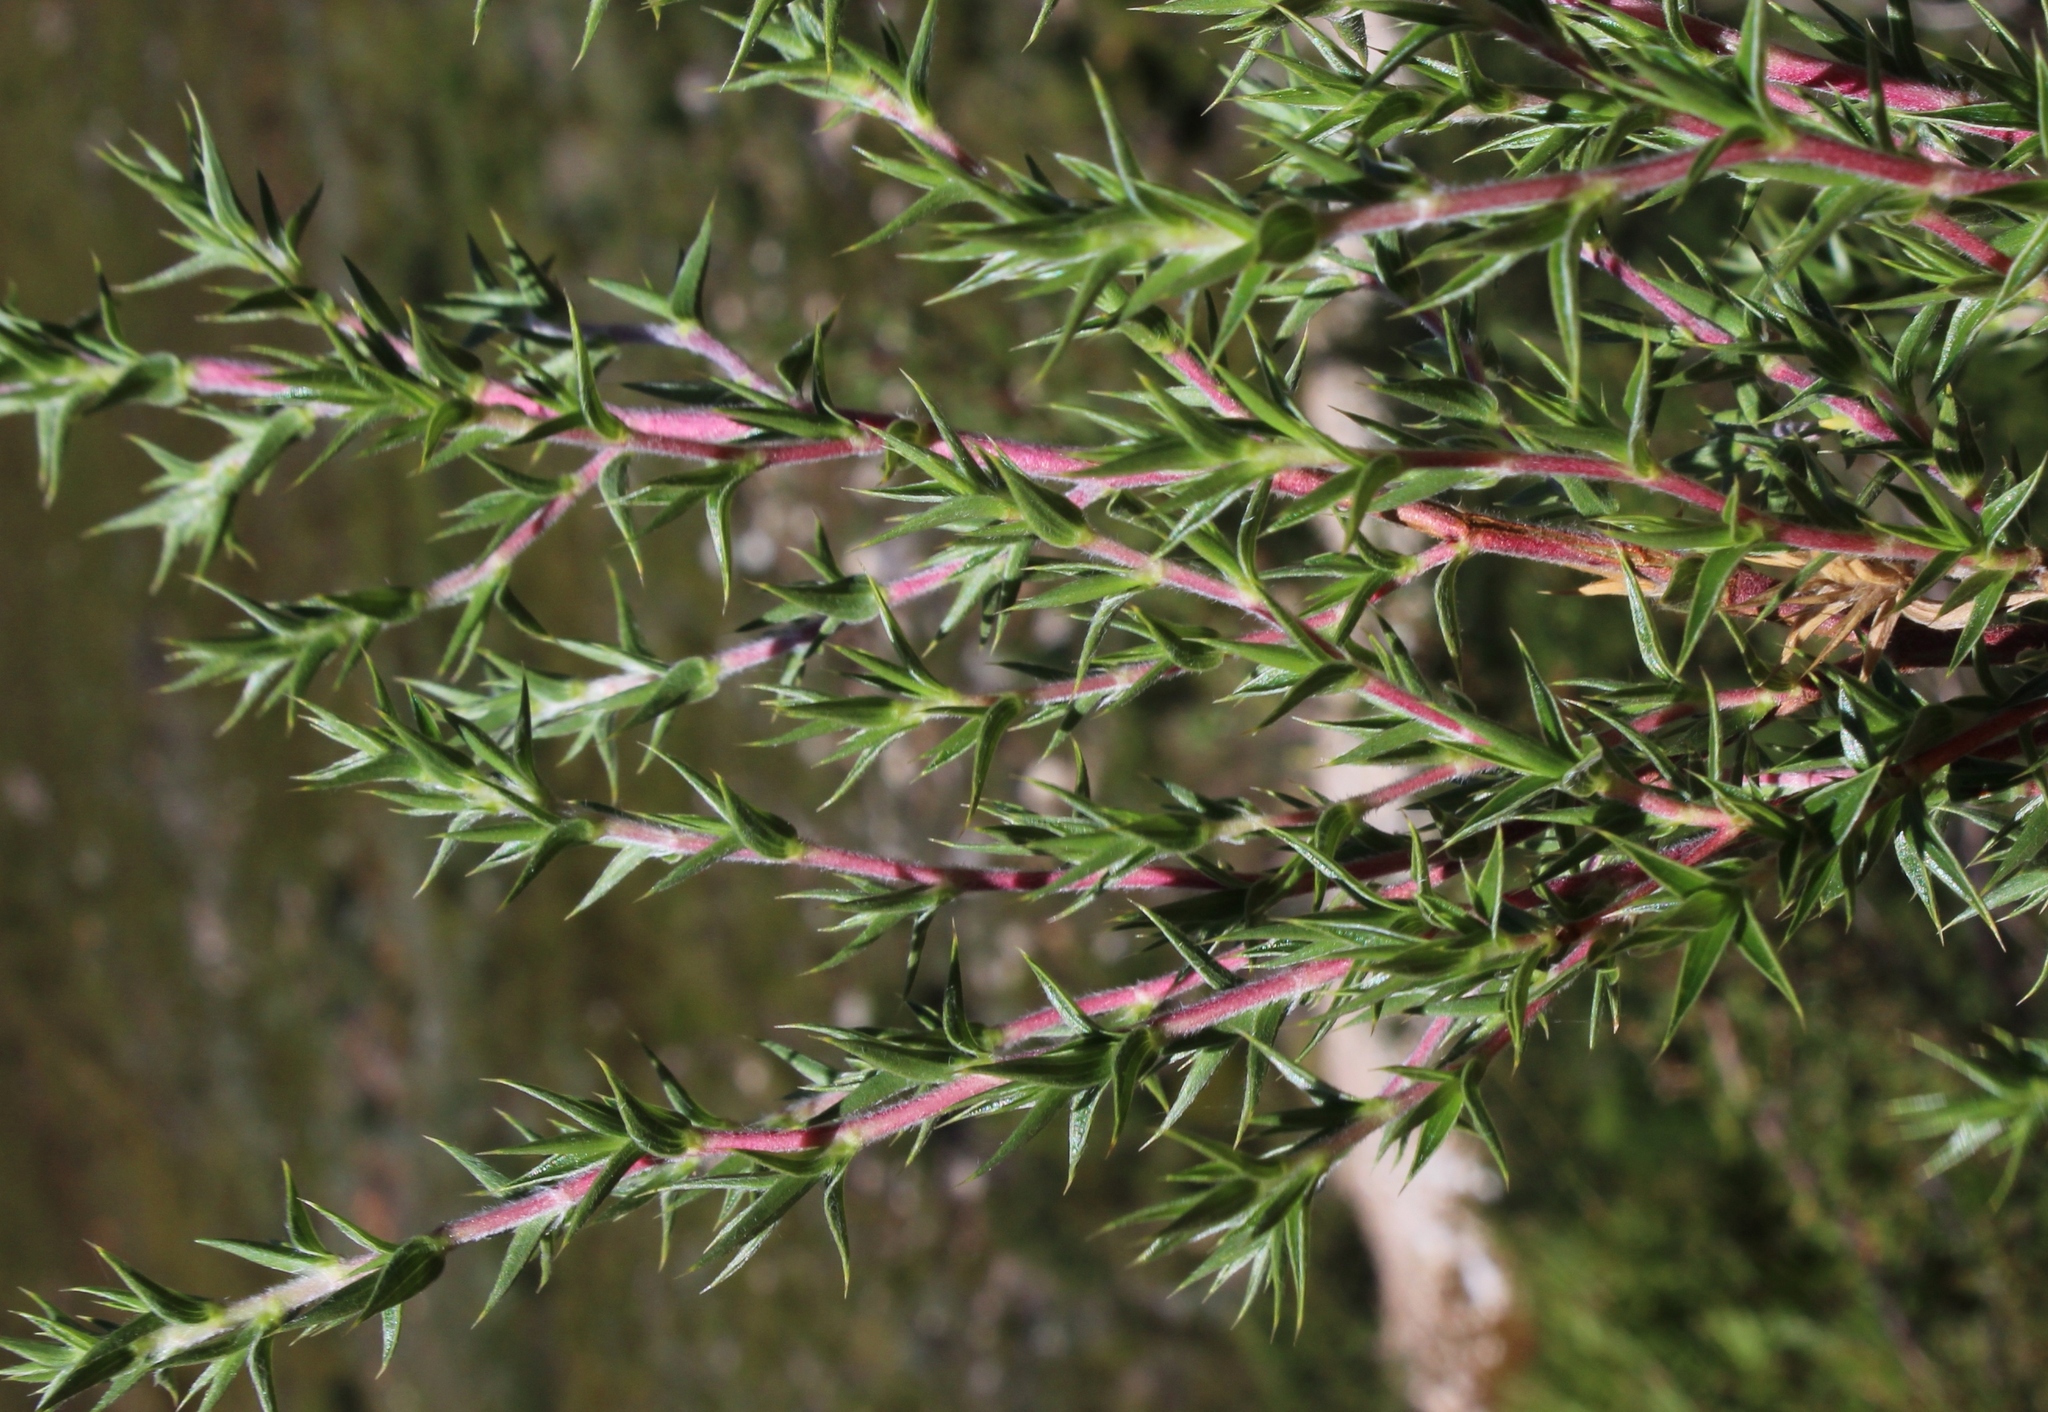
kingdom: Plantae
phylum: Tracheophyta
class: Magnoliopsida
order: Rosales
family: Rosaceae
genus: Cliffortia
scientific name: Cliffortia ruscifolia
